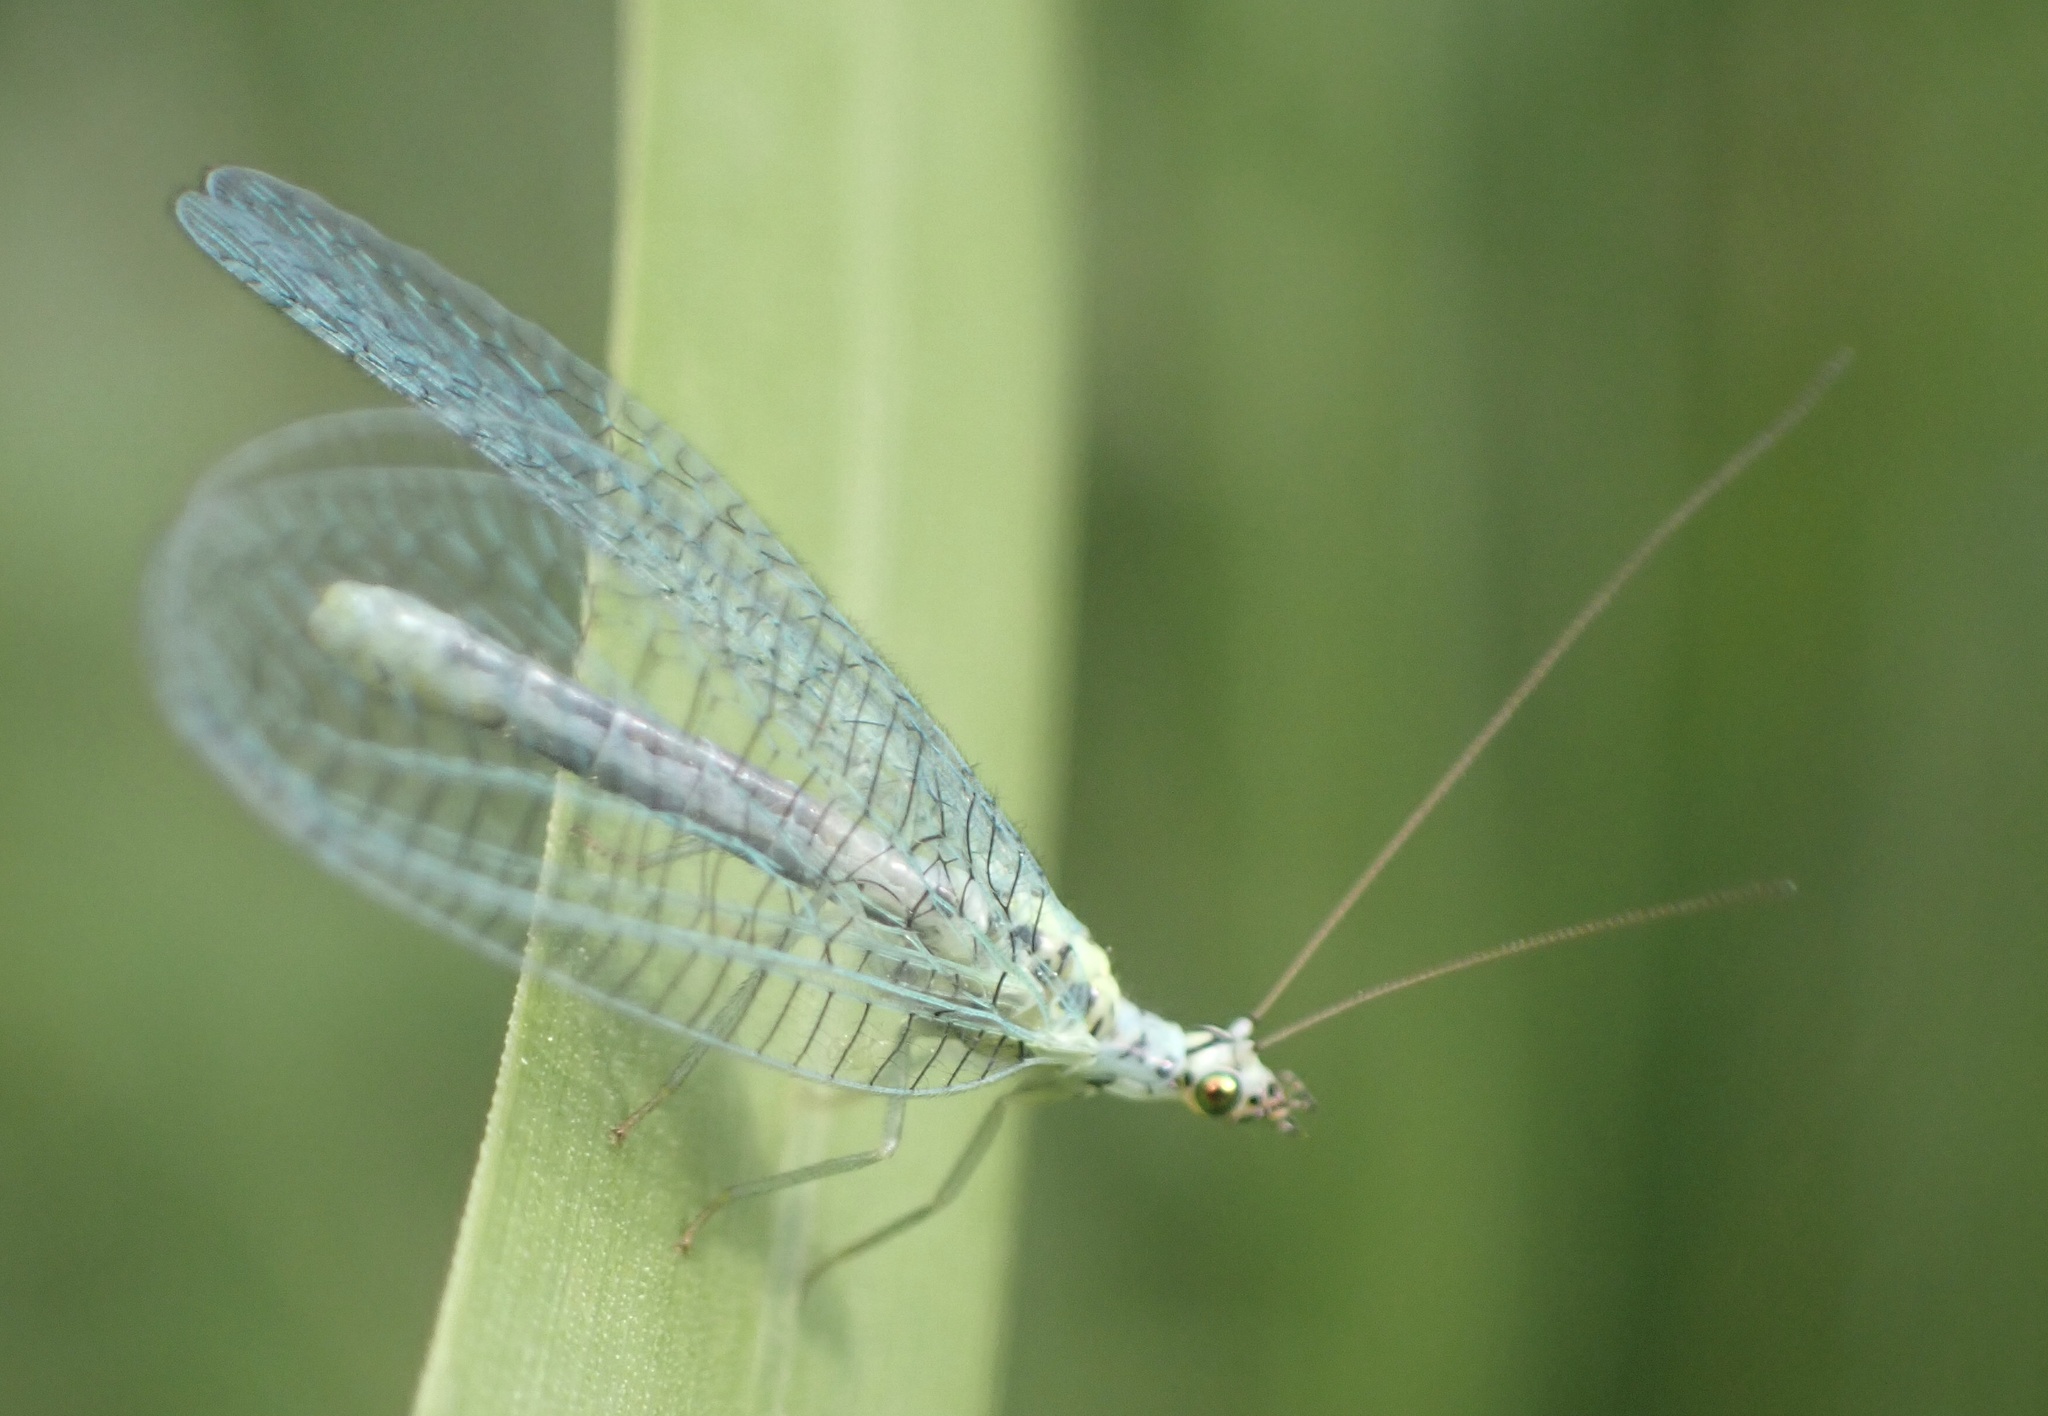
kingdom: Animalia
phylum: Arthropoda
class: Insecta
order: Neuroptera
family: Chrysopidae
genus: Chrysopa
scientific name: Chrysopa perla
